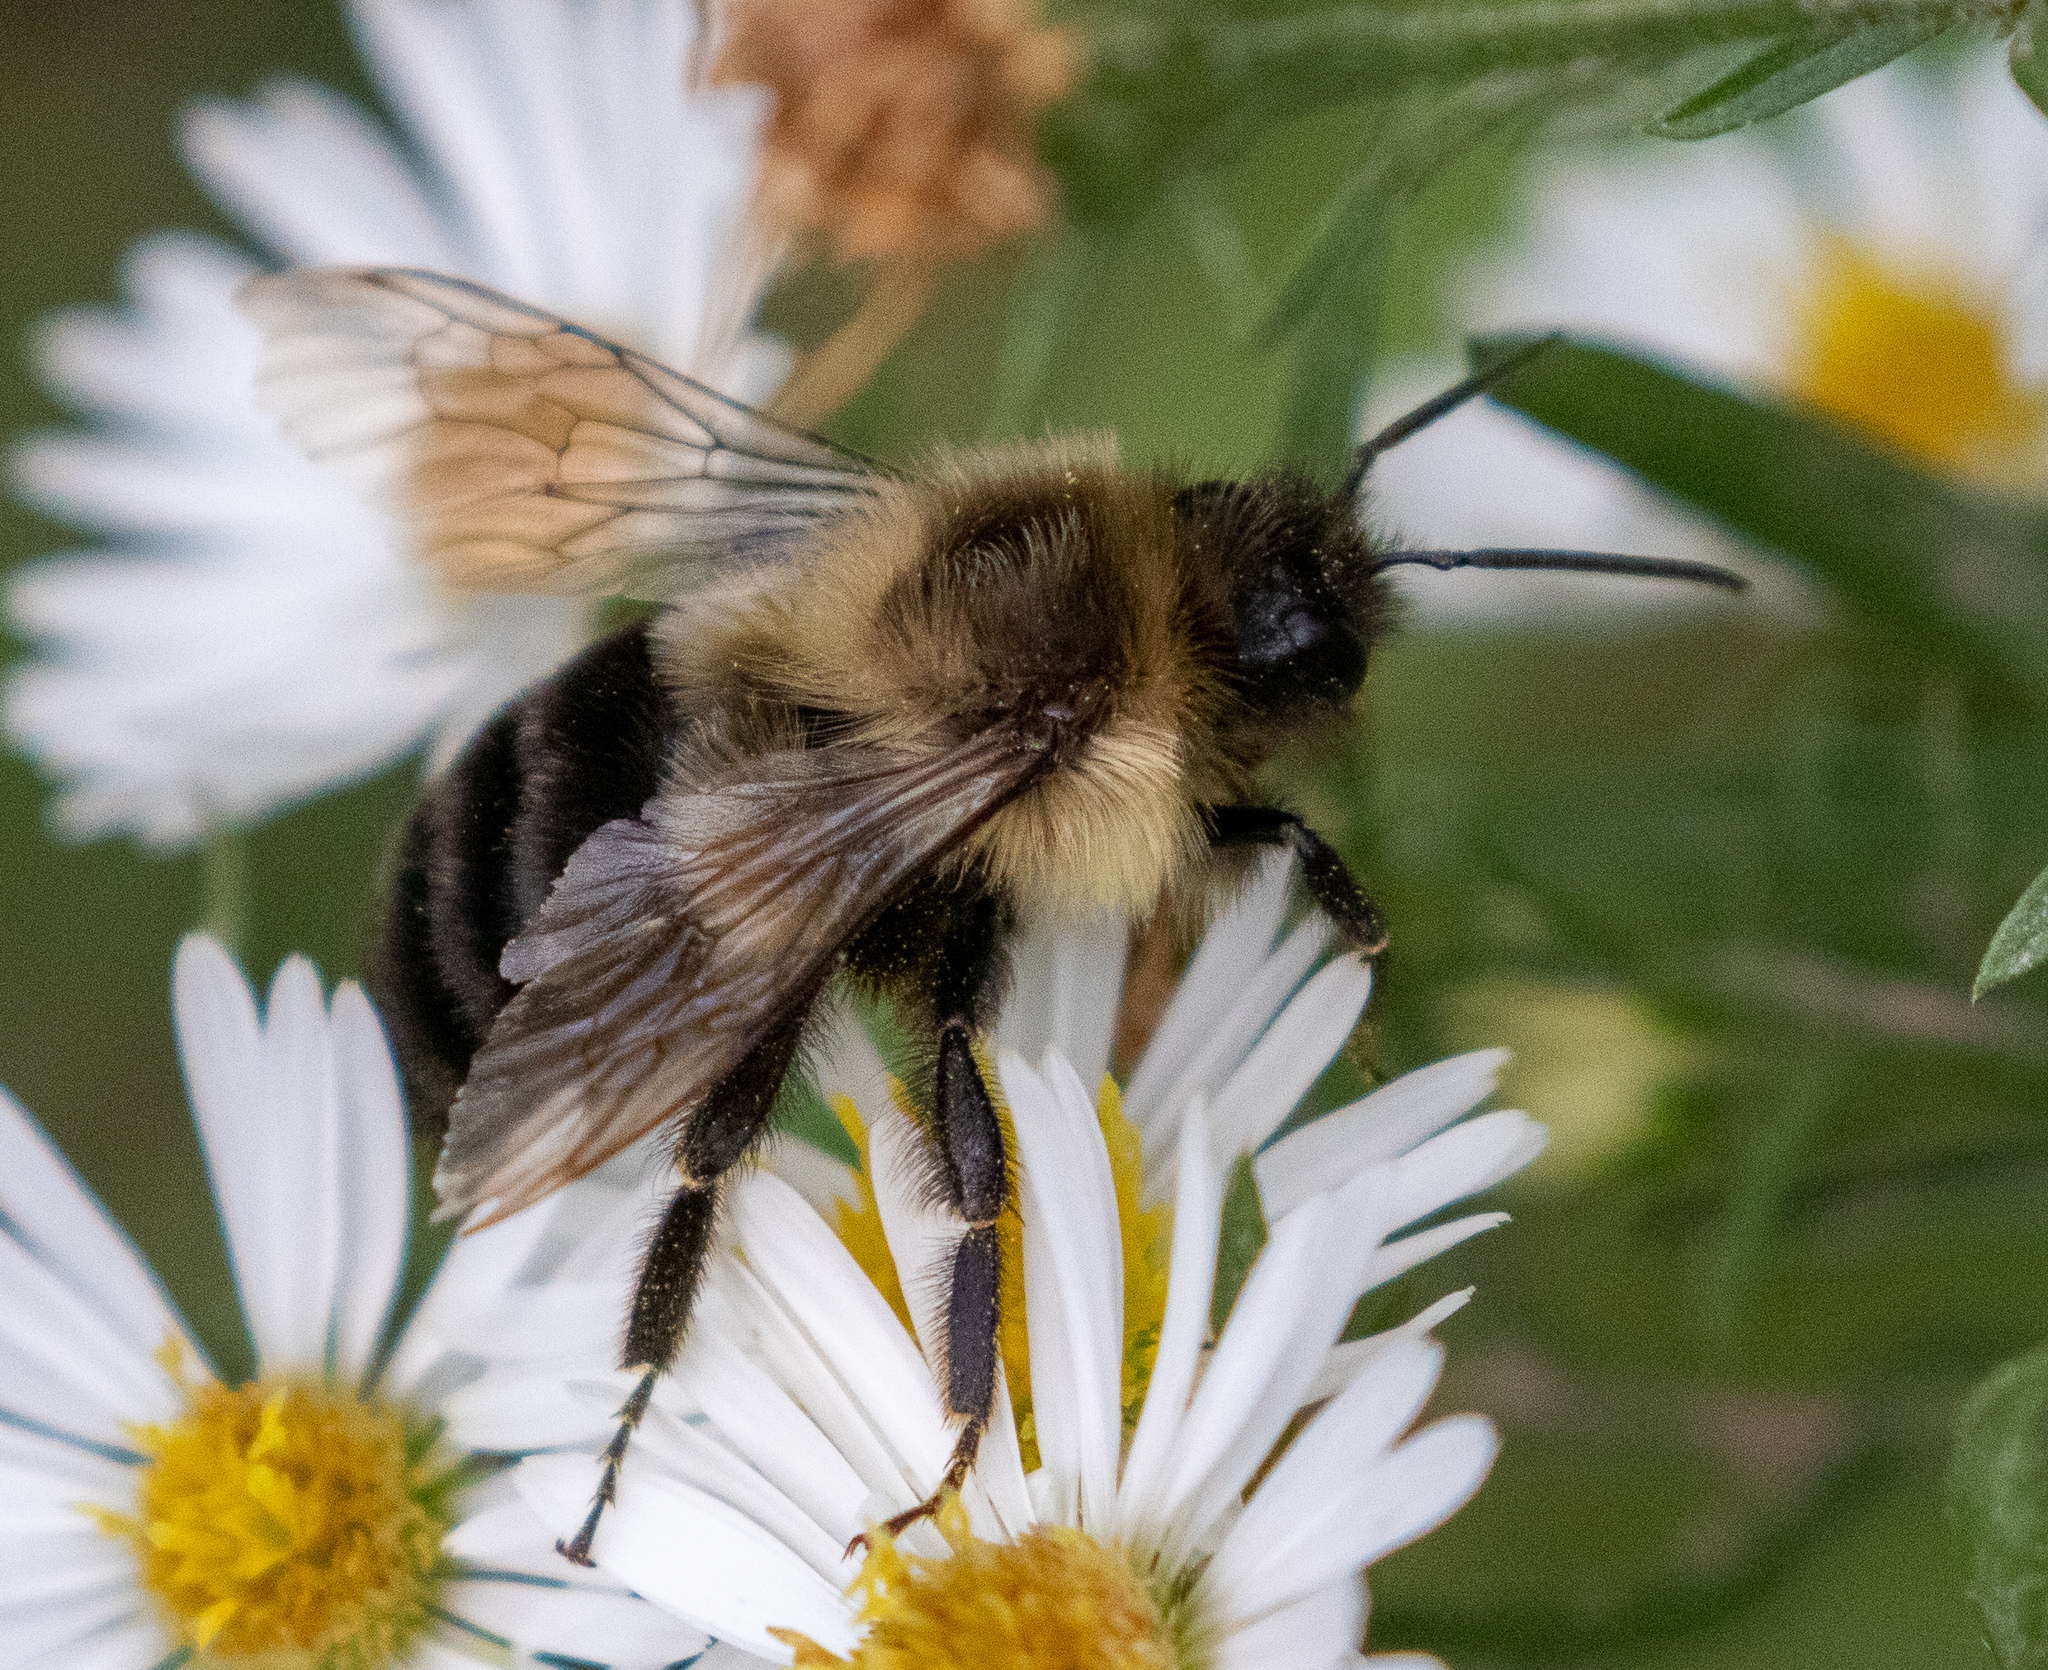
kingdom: Animalia
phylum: Arthropoda
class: Insecta
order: Hymenoptera
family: Apidae
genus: Bombus
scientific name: Bombus impatiens
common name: Common eastern bumble bee
